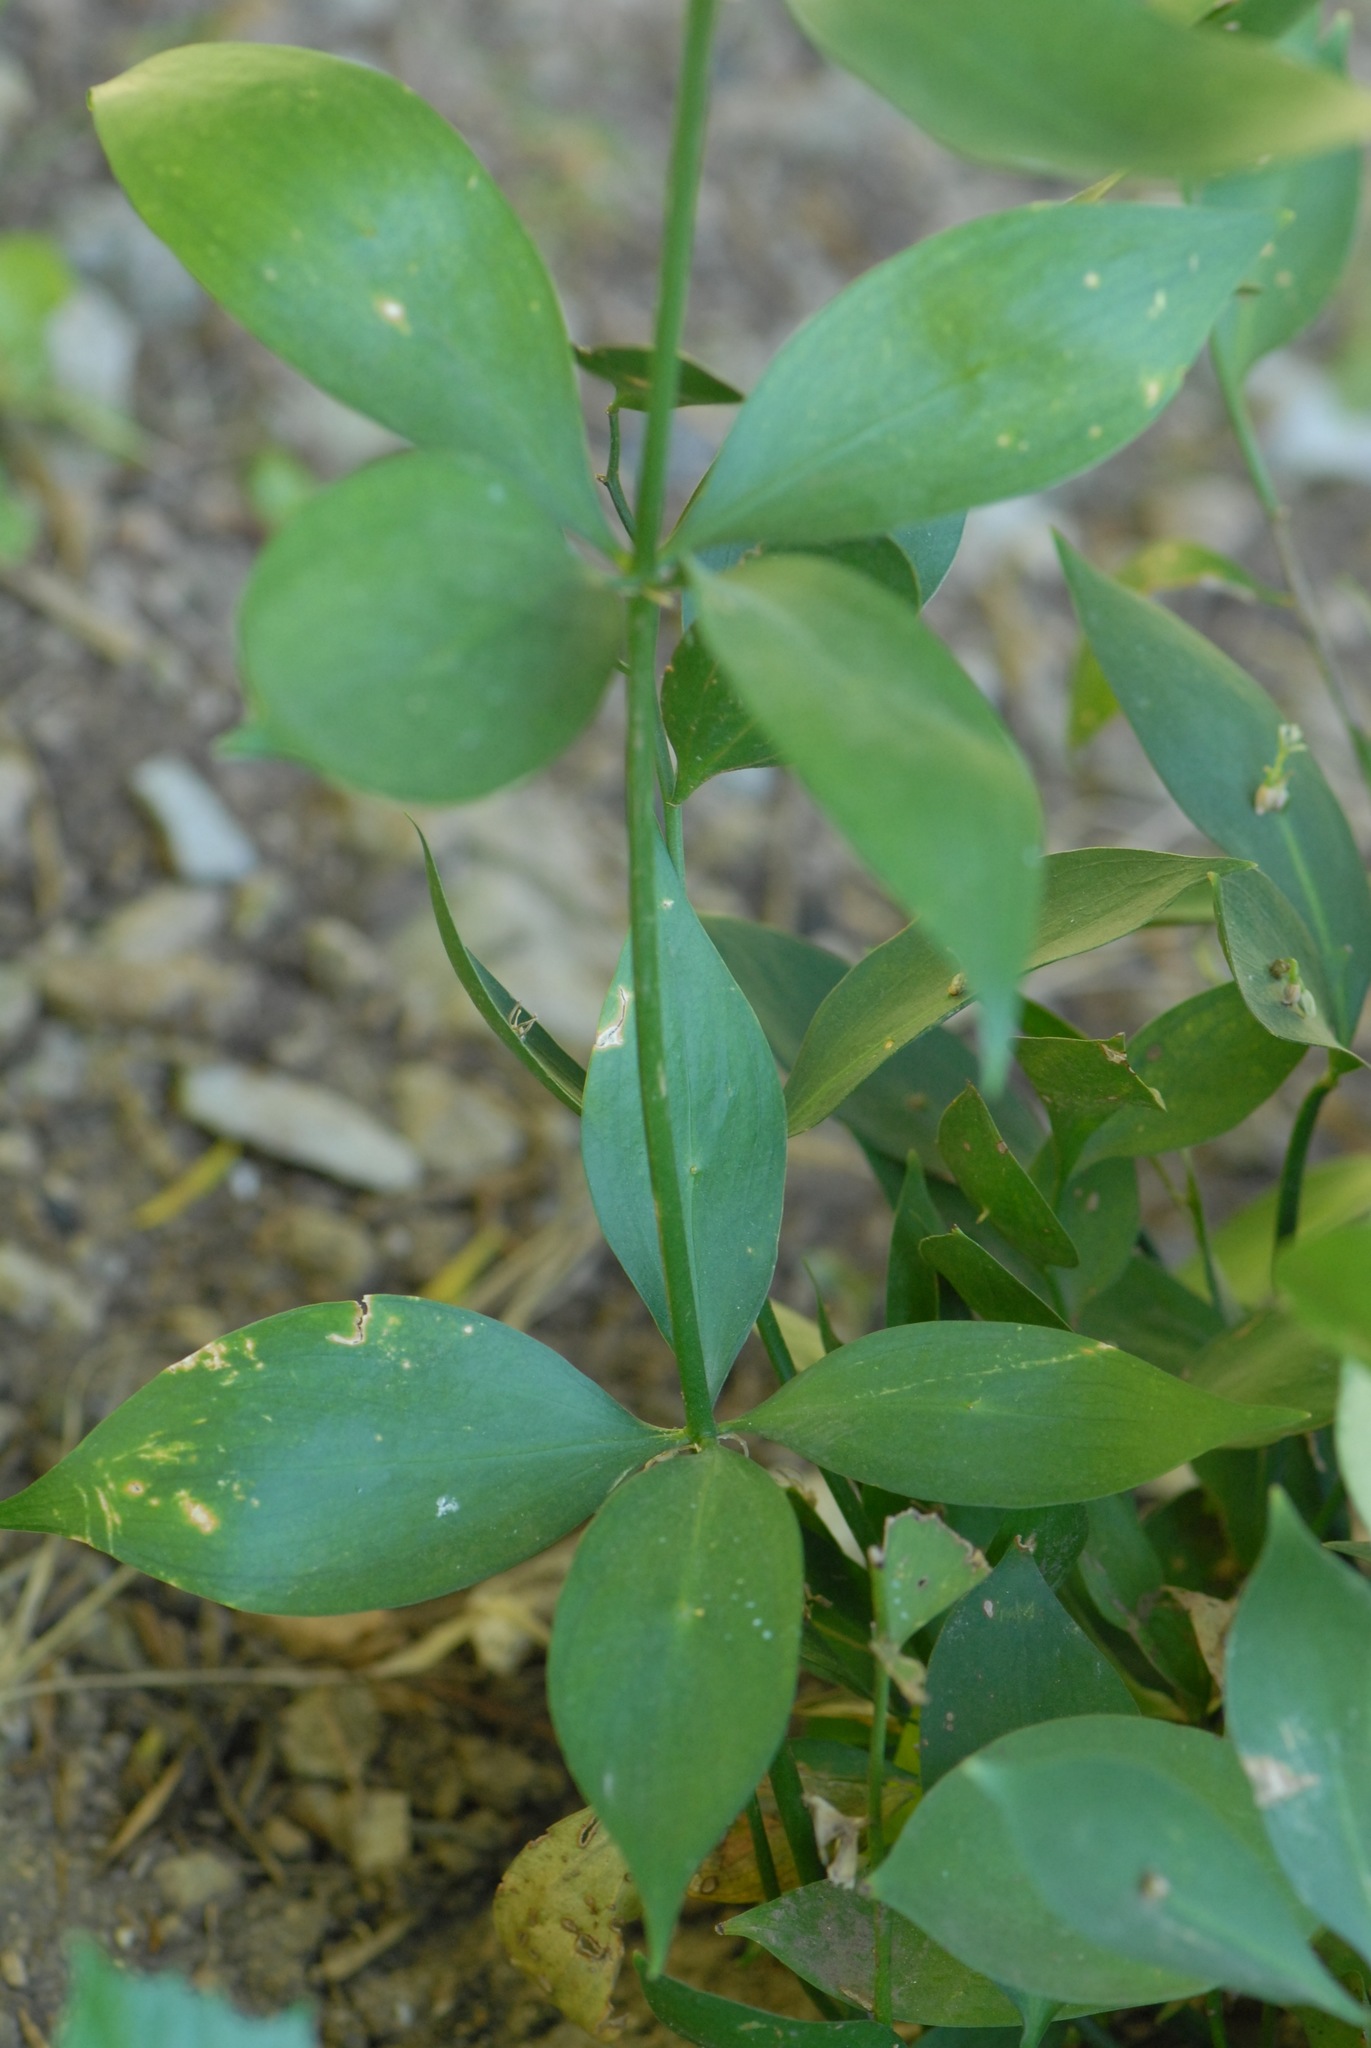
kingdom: Plantae
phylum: Tracheophyta
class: Liliopsida
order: Asparagales
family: Asparagaceae
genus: Ruscus
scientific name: Ruscus hypophyllum
